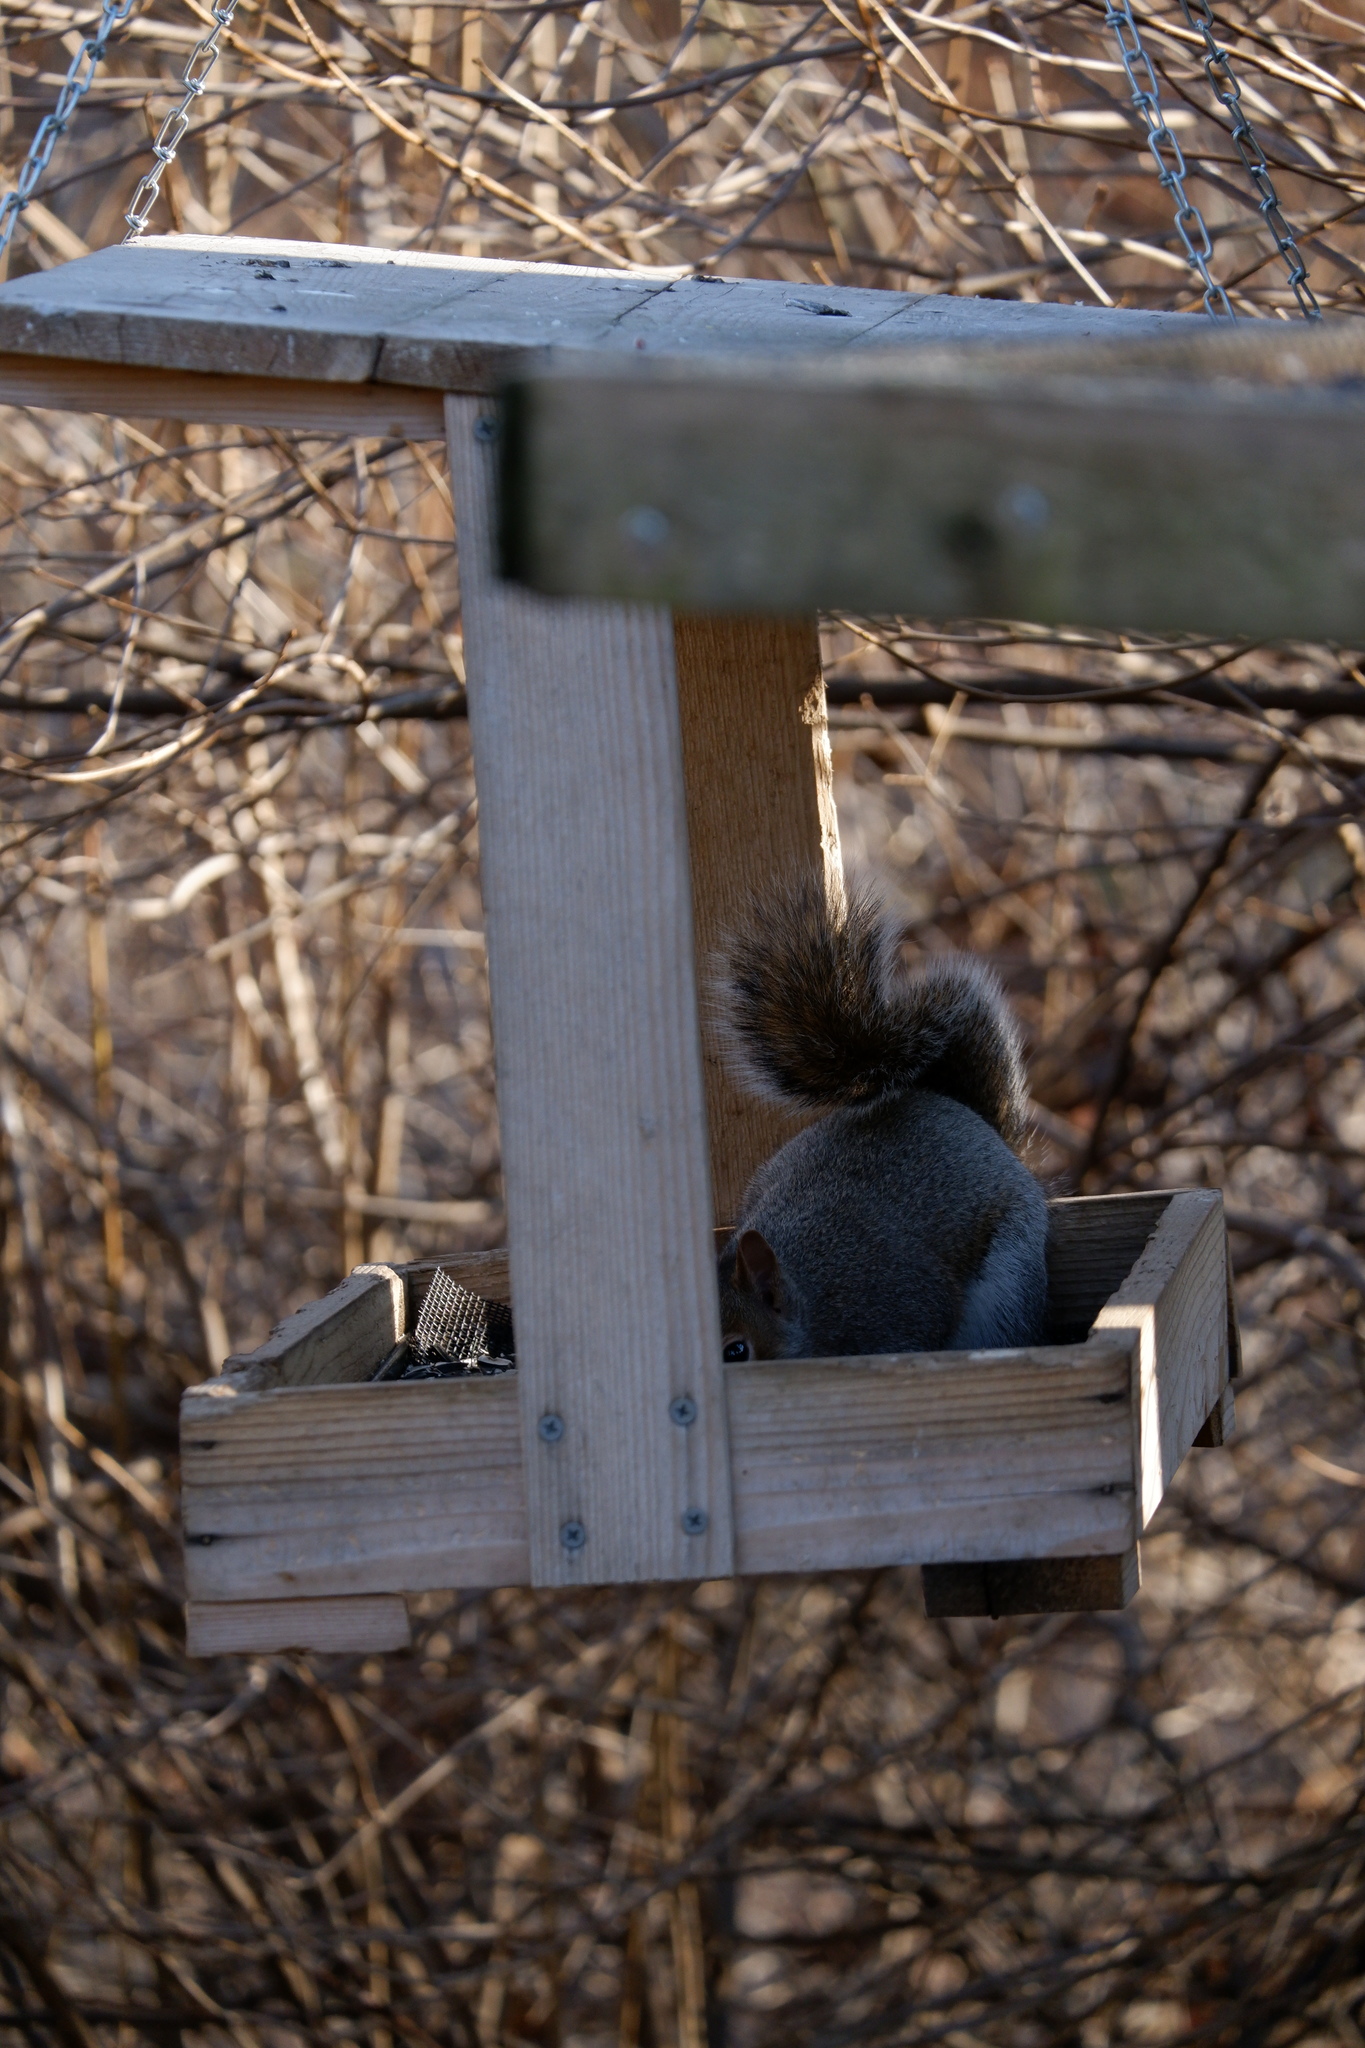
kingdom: Animalia
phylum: Chordata
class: Mammalia
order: Rodentia
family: Sciuridae
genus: Sciurus
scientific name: Sciurus carolinensis
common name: Eastern gray squirrel
